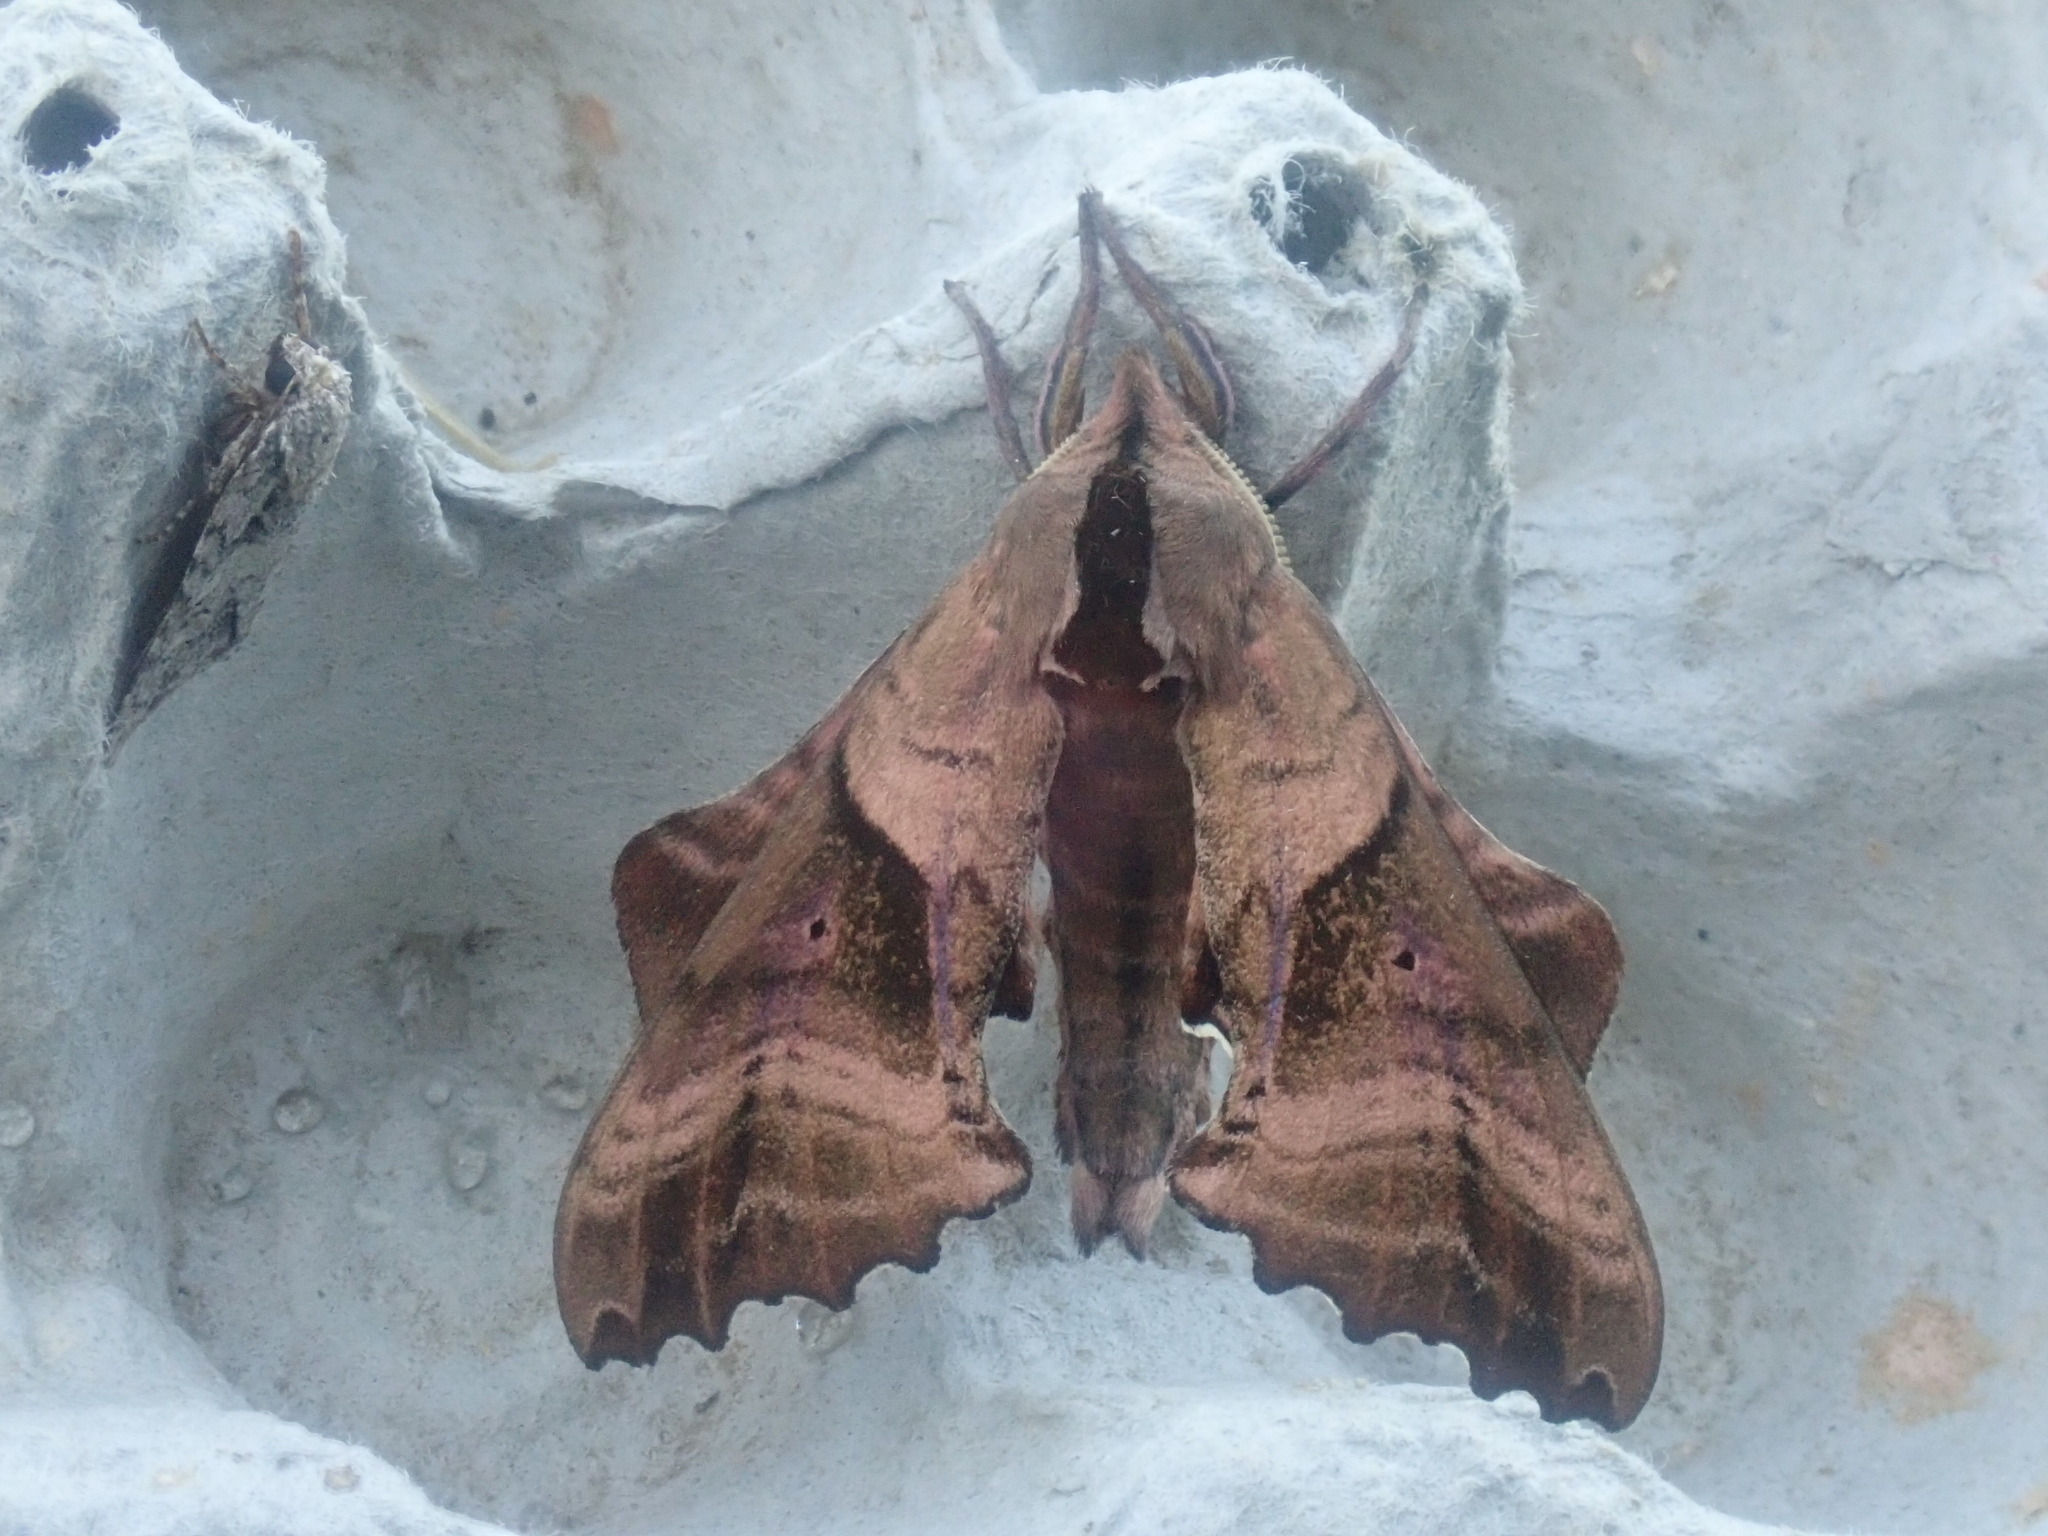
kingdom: Animalia
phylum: Arthropoda
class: Insecta
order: Lepidoptera
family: Sphingidae
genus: Paonias
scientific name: Paonias excaecata
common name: Blind-eyed sphinx
